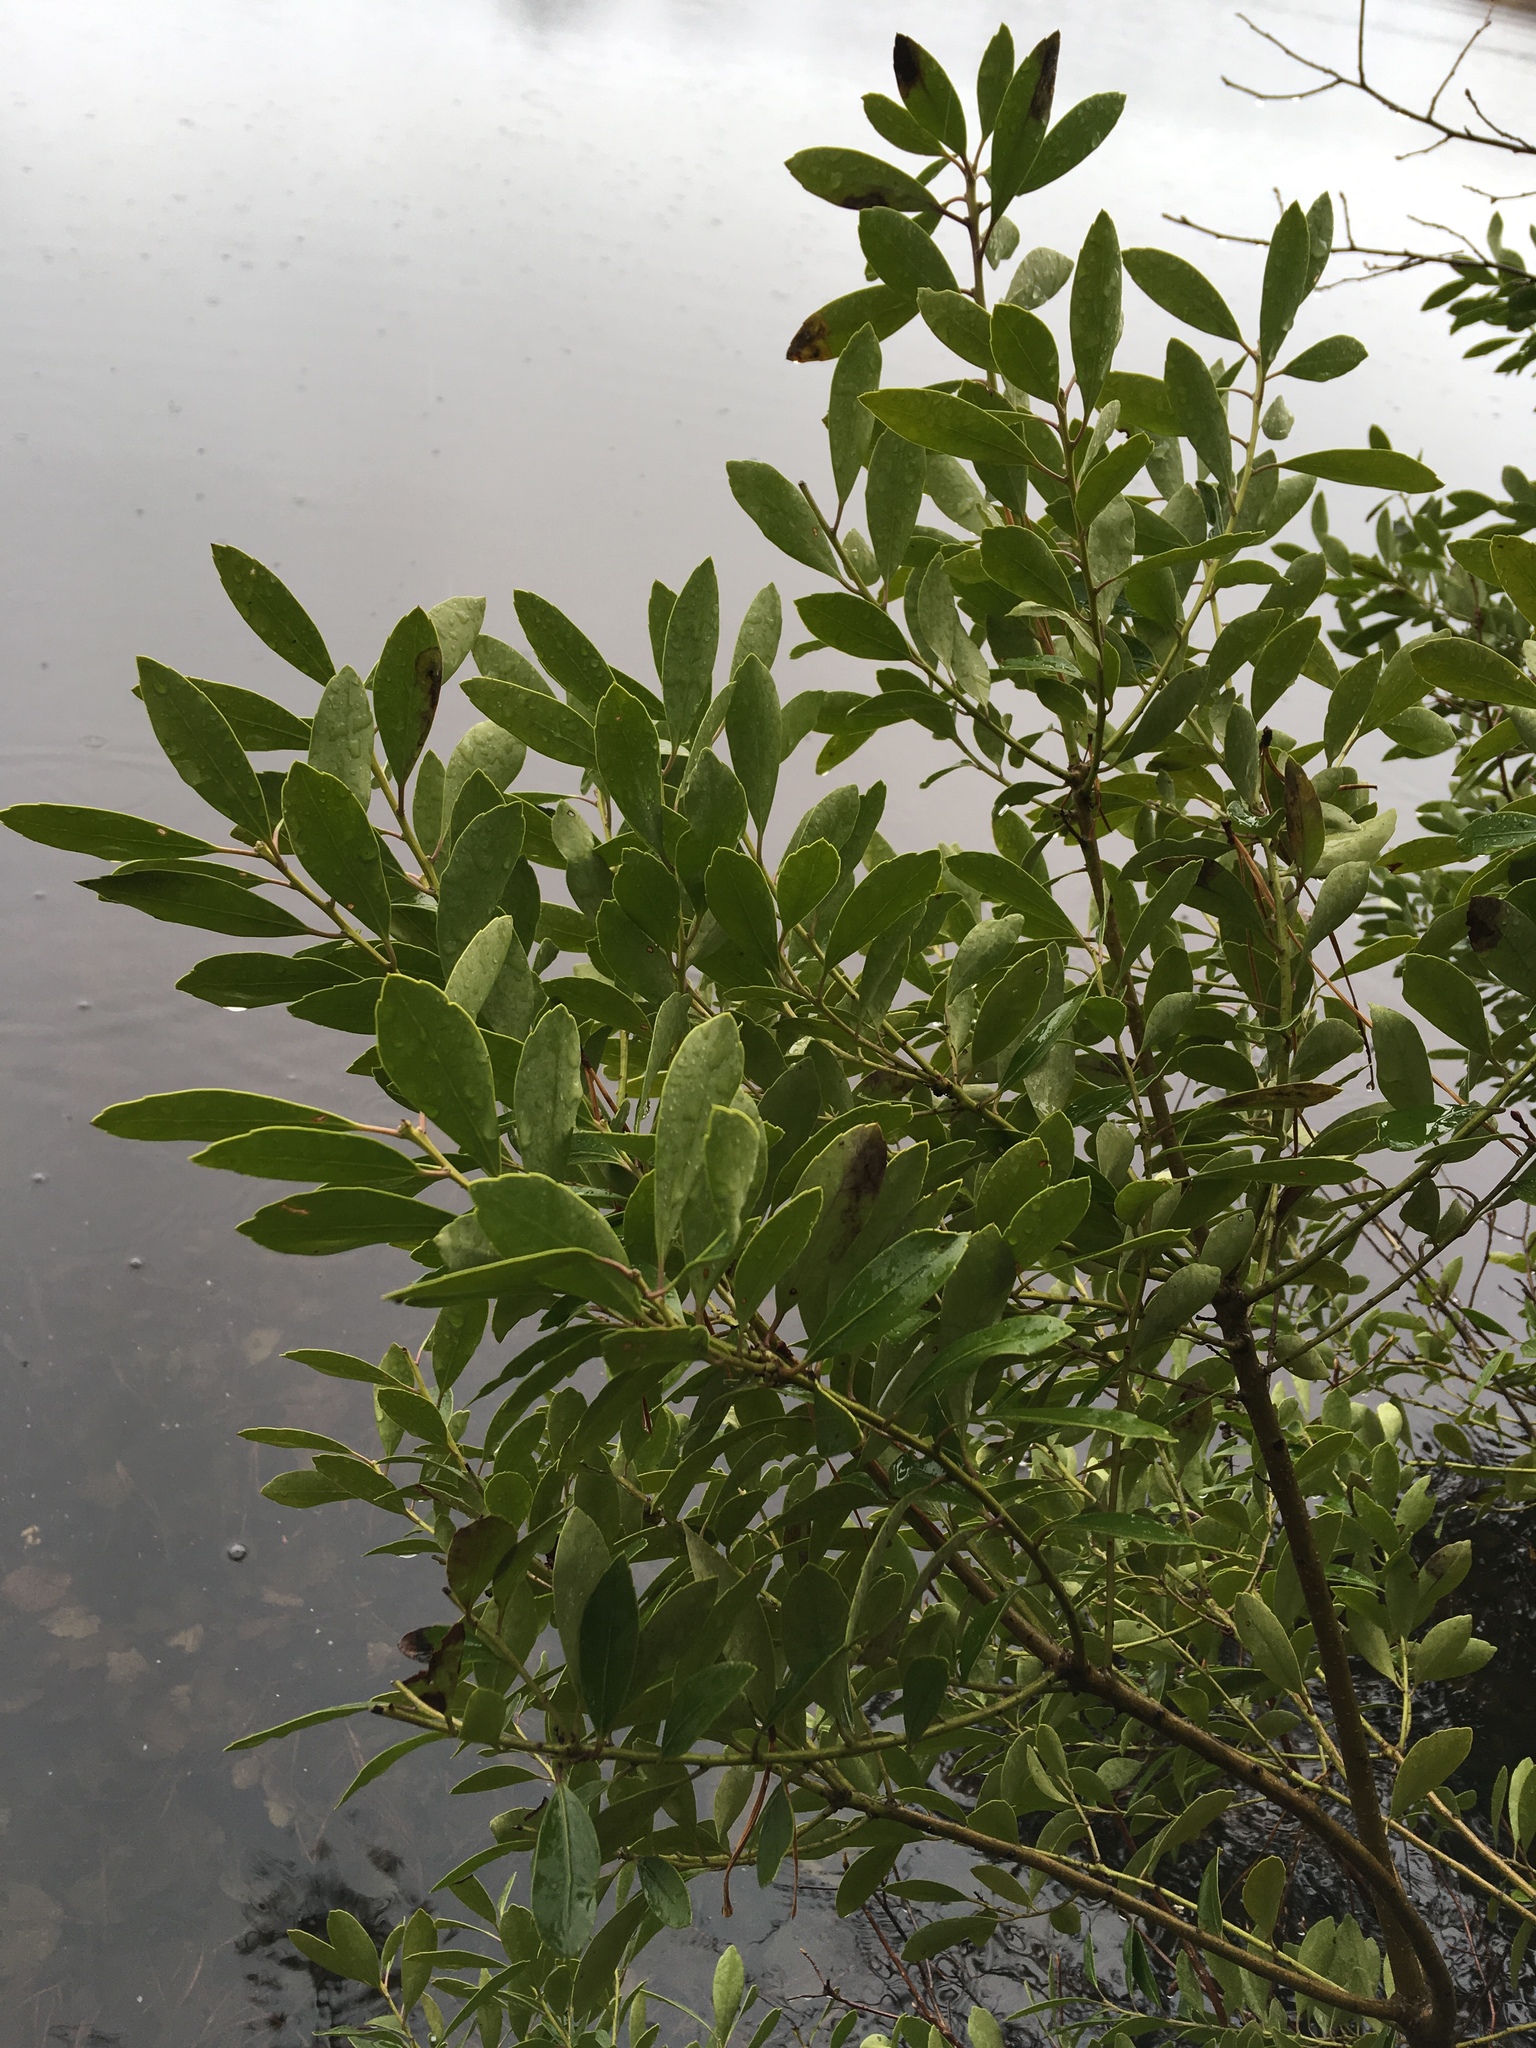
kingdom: Plantae
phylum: Tracheophyta
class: Magnoliopsida
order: Aquifoliales
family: Aquifoliaceae
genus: Ilex
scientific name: Ilex glabra
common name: Bitter gallberry
